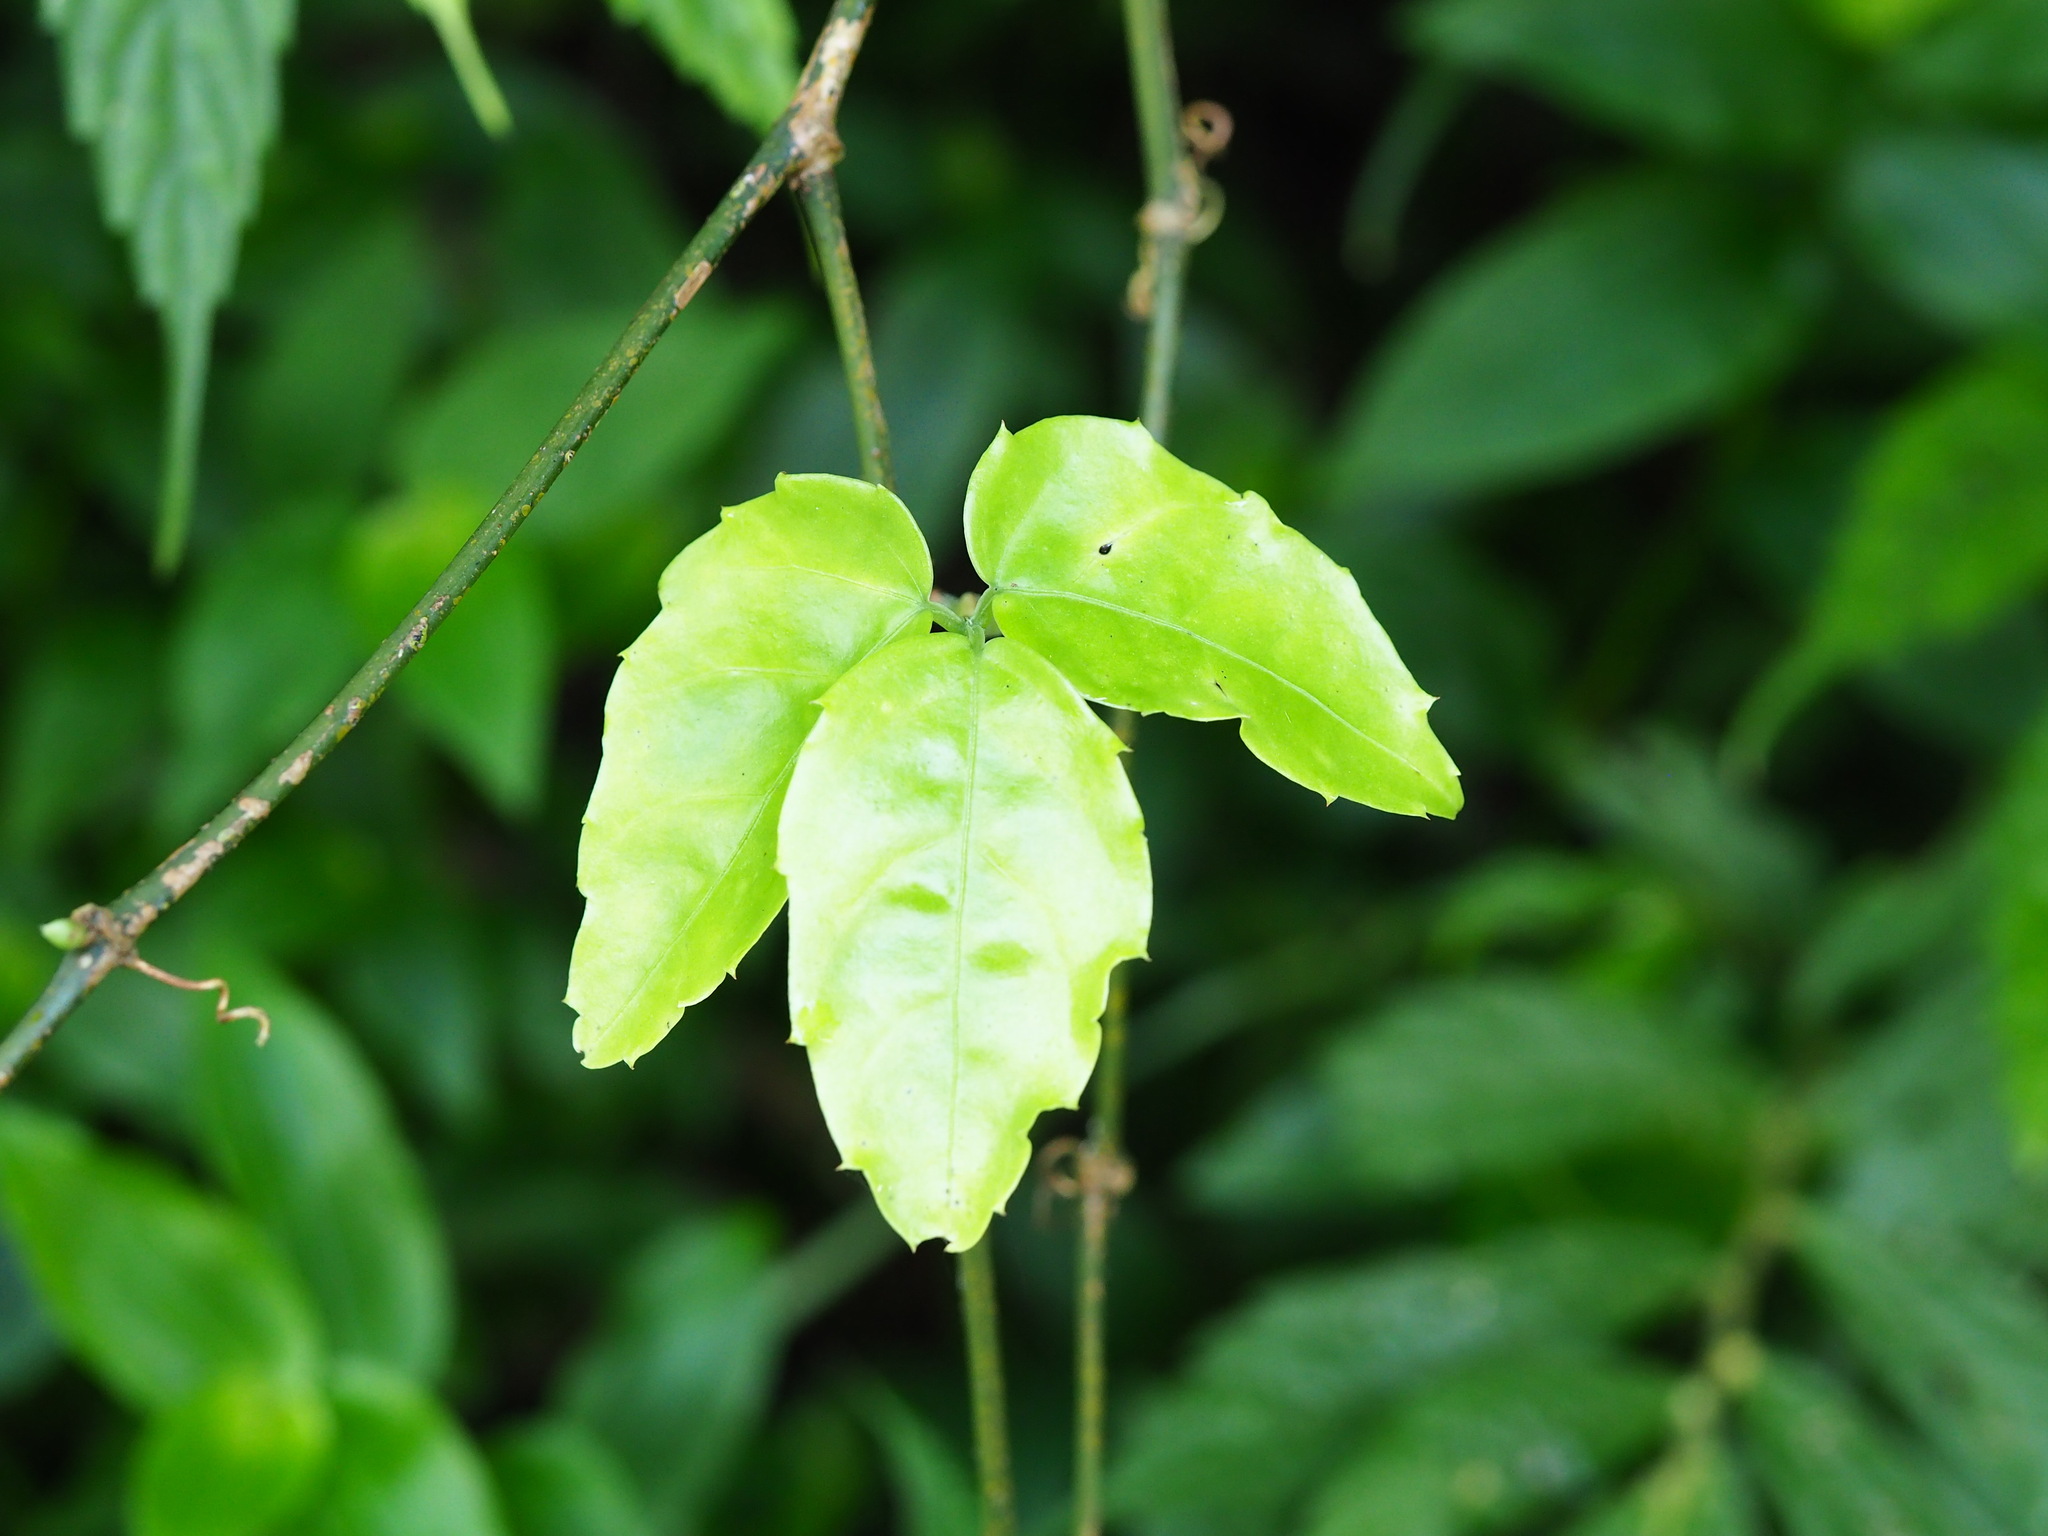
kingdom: Plantae
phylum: Tracheophyta
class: Magnoliopsida
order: Vitales
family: Vitaceae
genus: Tetrastigma
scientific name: Tetrastigma hemsleyanum
